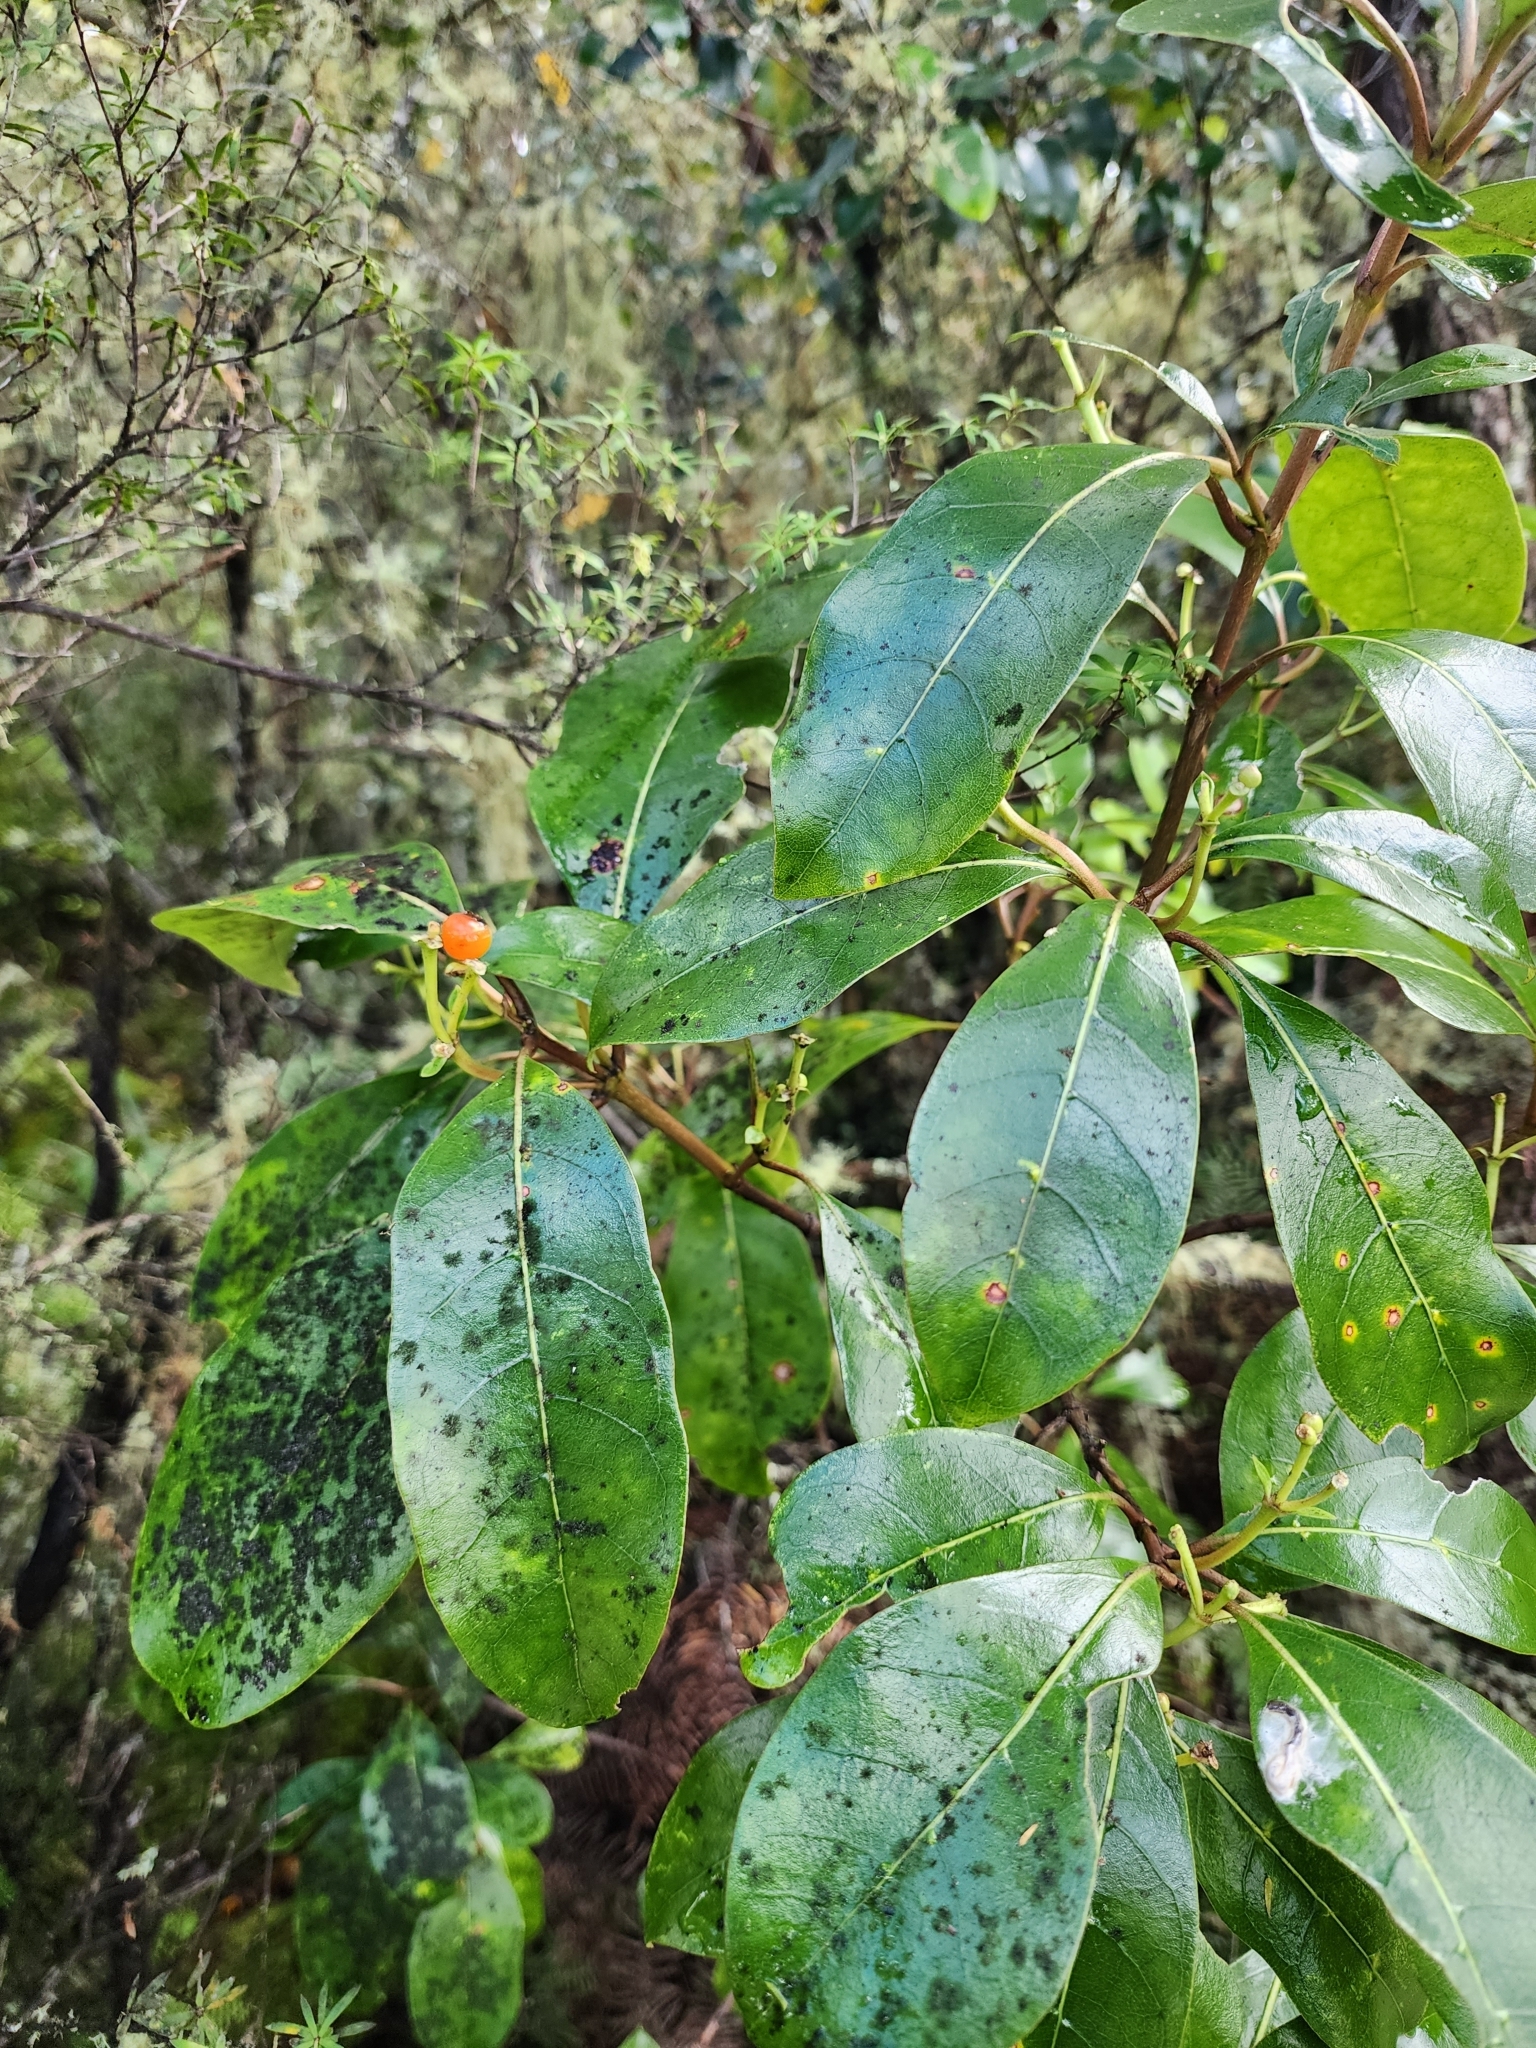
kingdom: Plantae
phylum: Tracheophyta
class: Magnoliopsida
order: Gentianales
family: Rubiaceae
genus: Coprosma
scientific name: Coprosma lucida
